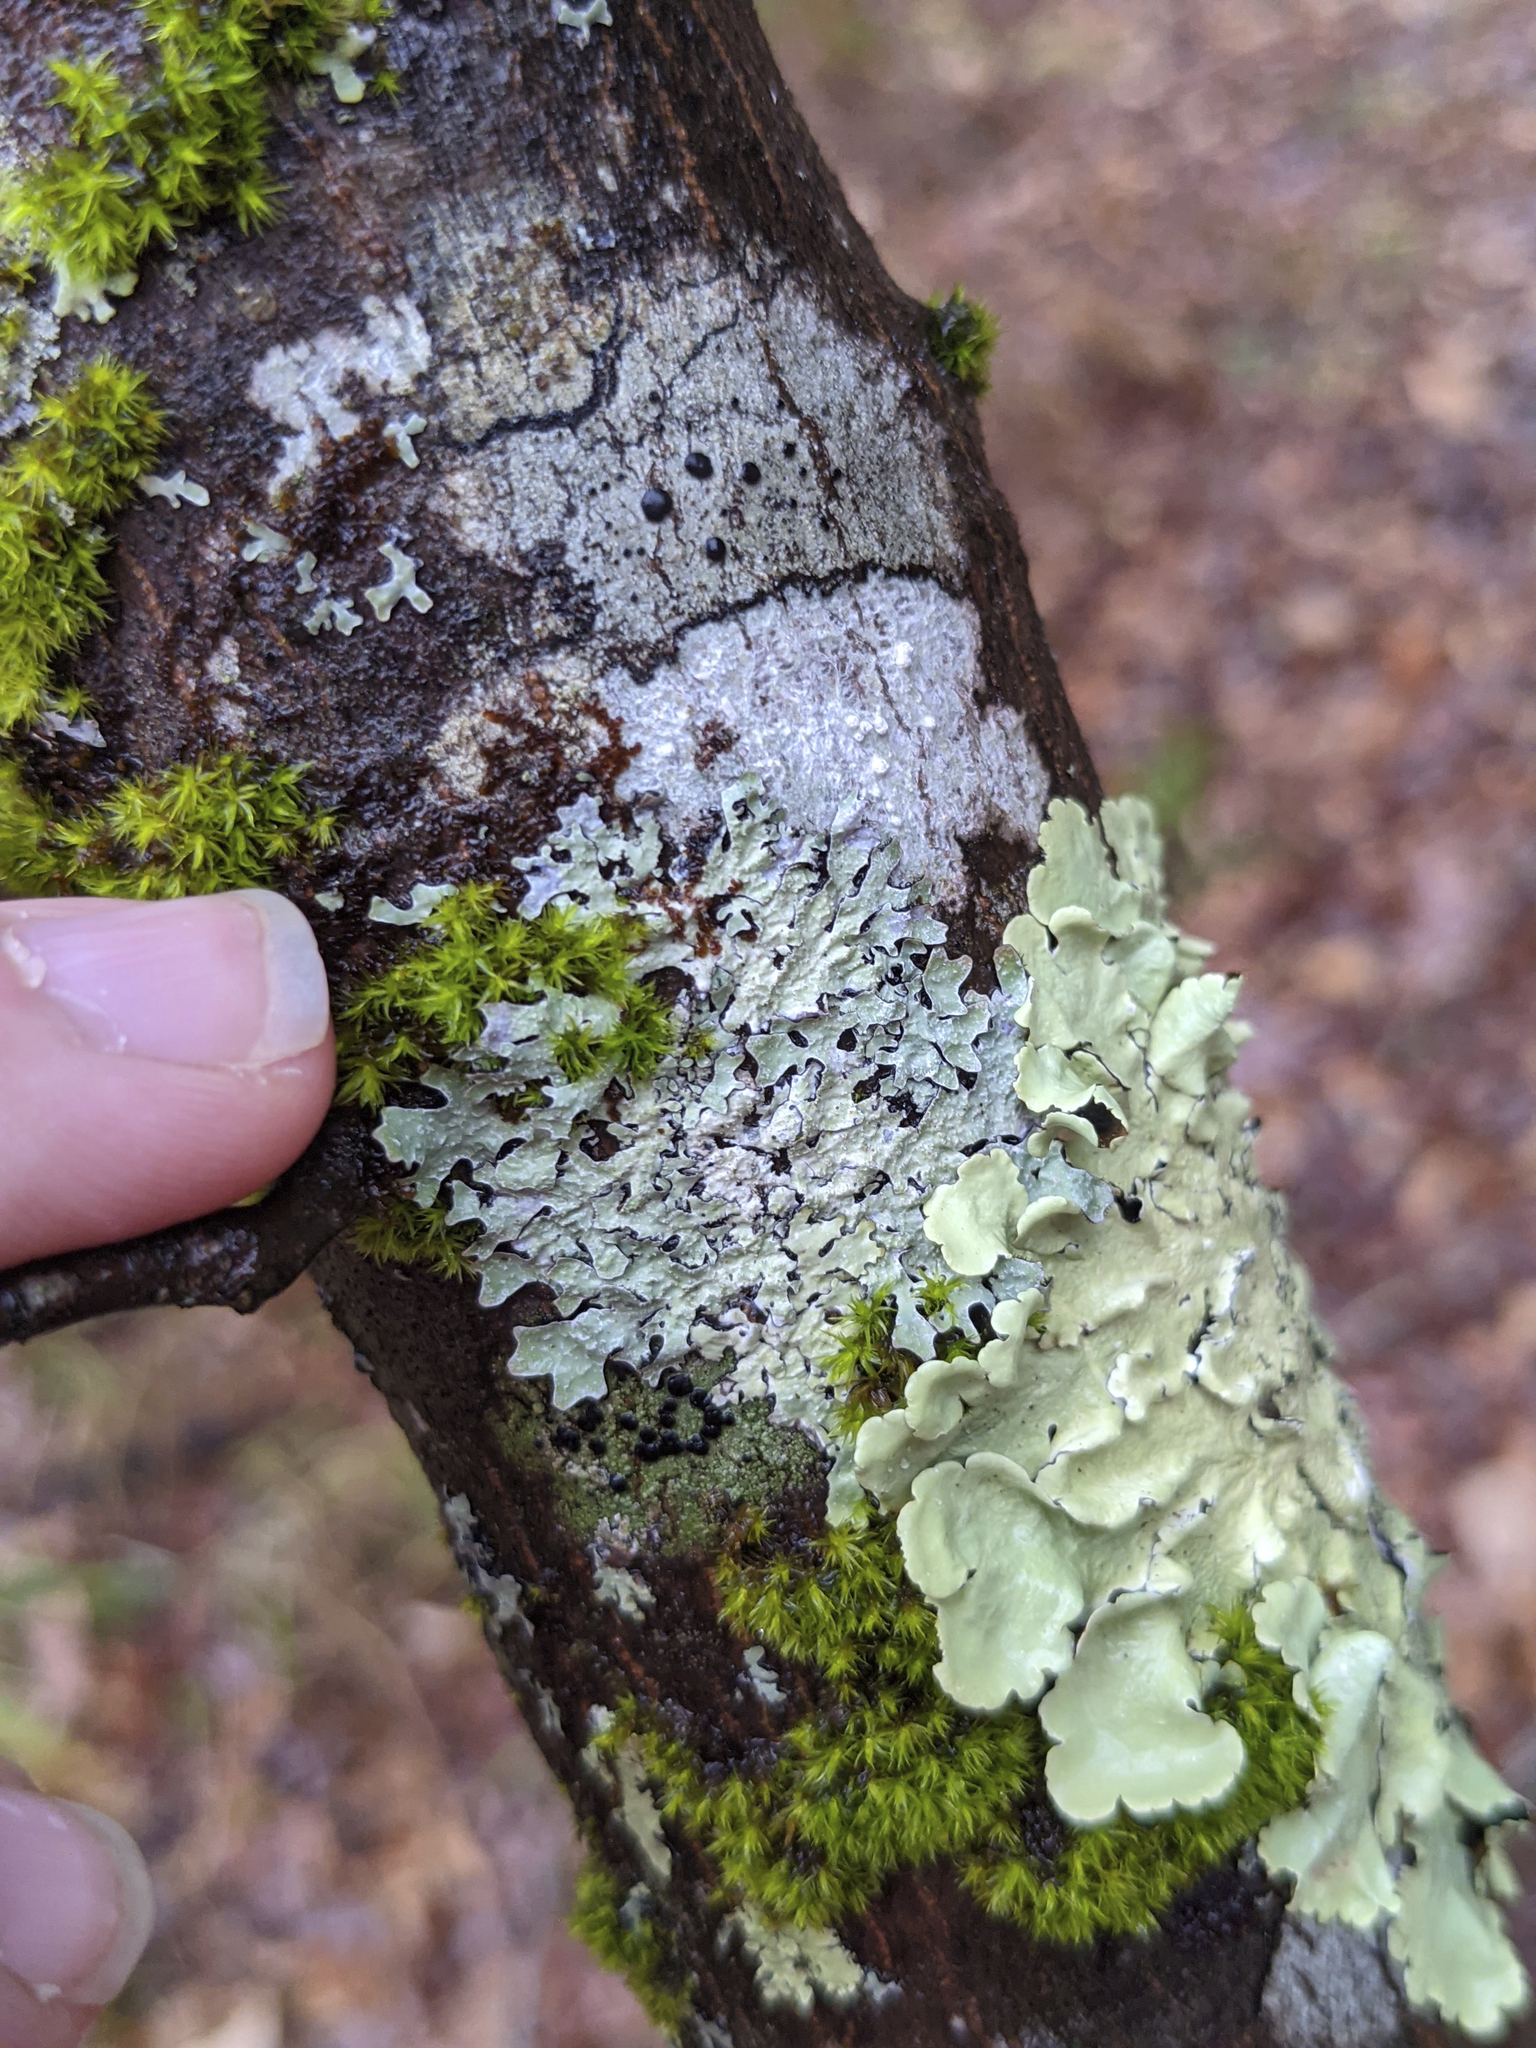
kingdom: Plantae
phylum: Bryophyta
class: Bryopsida
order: Orthotrichales
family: Orthotrichaceae
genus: Ulota
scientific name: Ulota crispa
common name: Crisped pincushion moss
